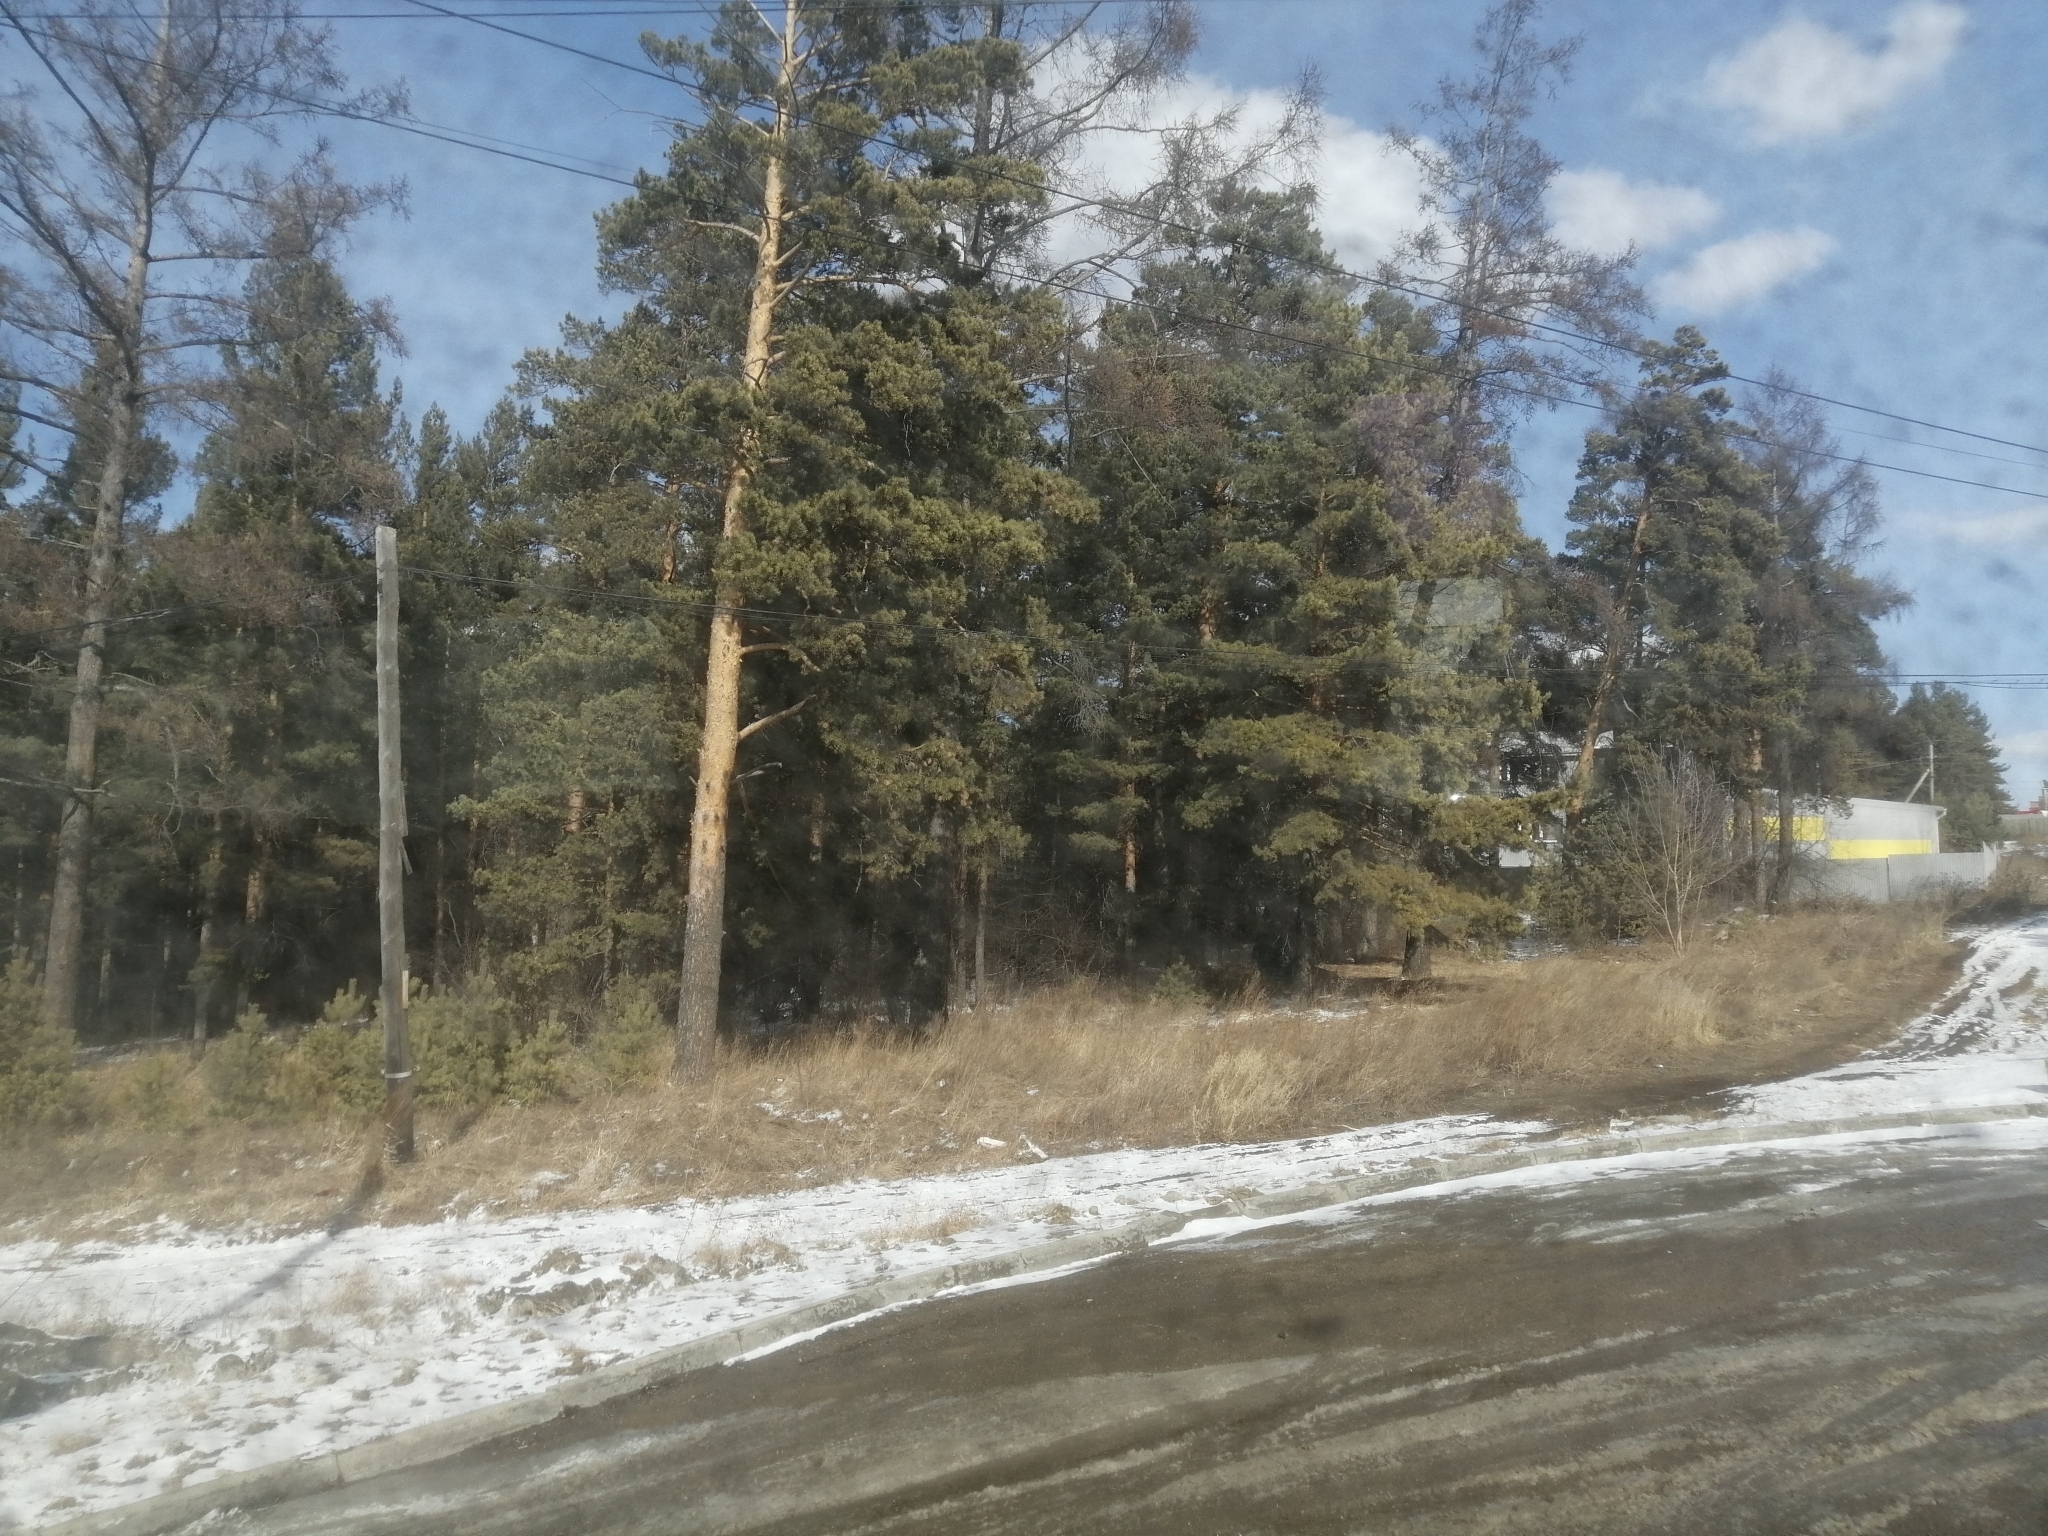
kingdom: Plantae
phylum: Tracheophyta
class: Pinopsida
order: Pinales
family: Pinaceae
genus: Pinus
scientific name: Pinus sylvestris
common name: Scots pine
